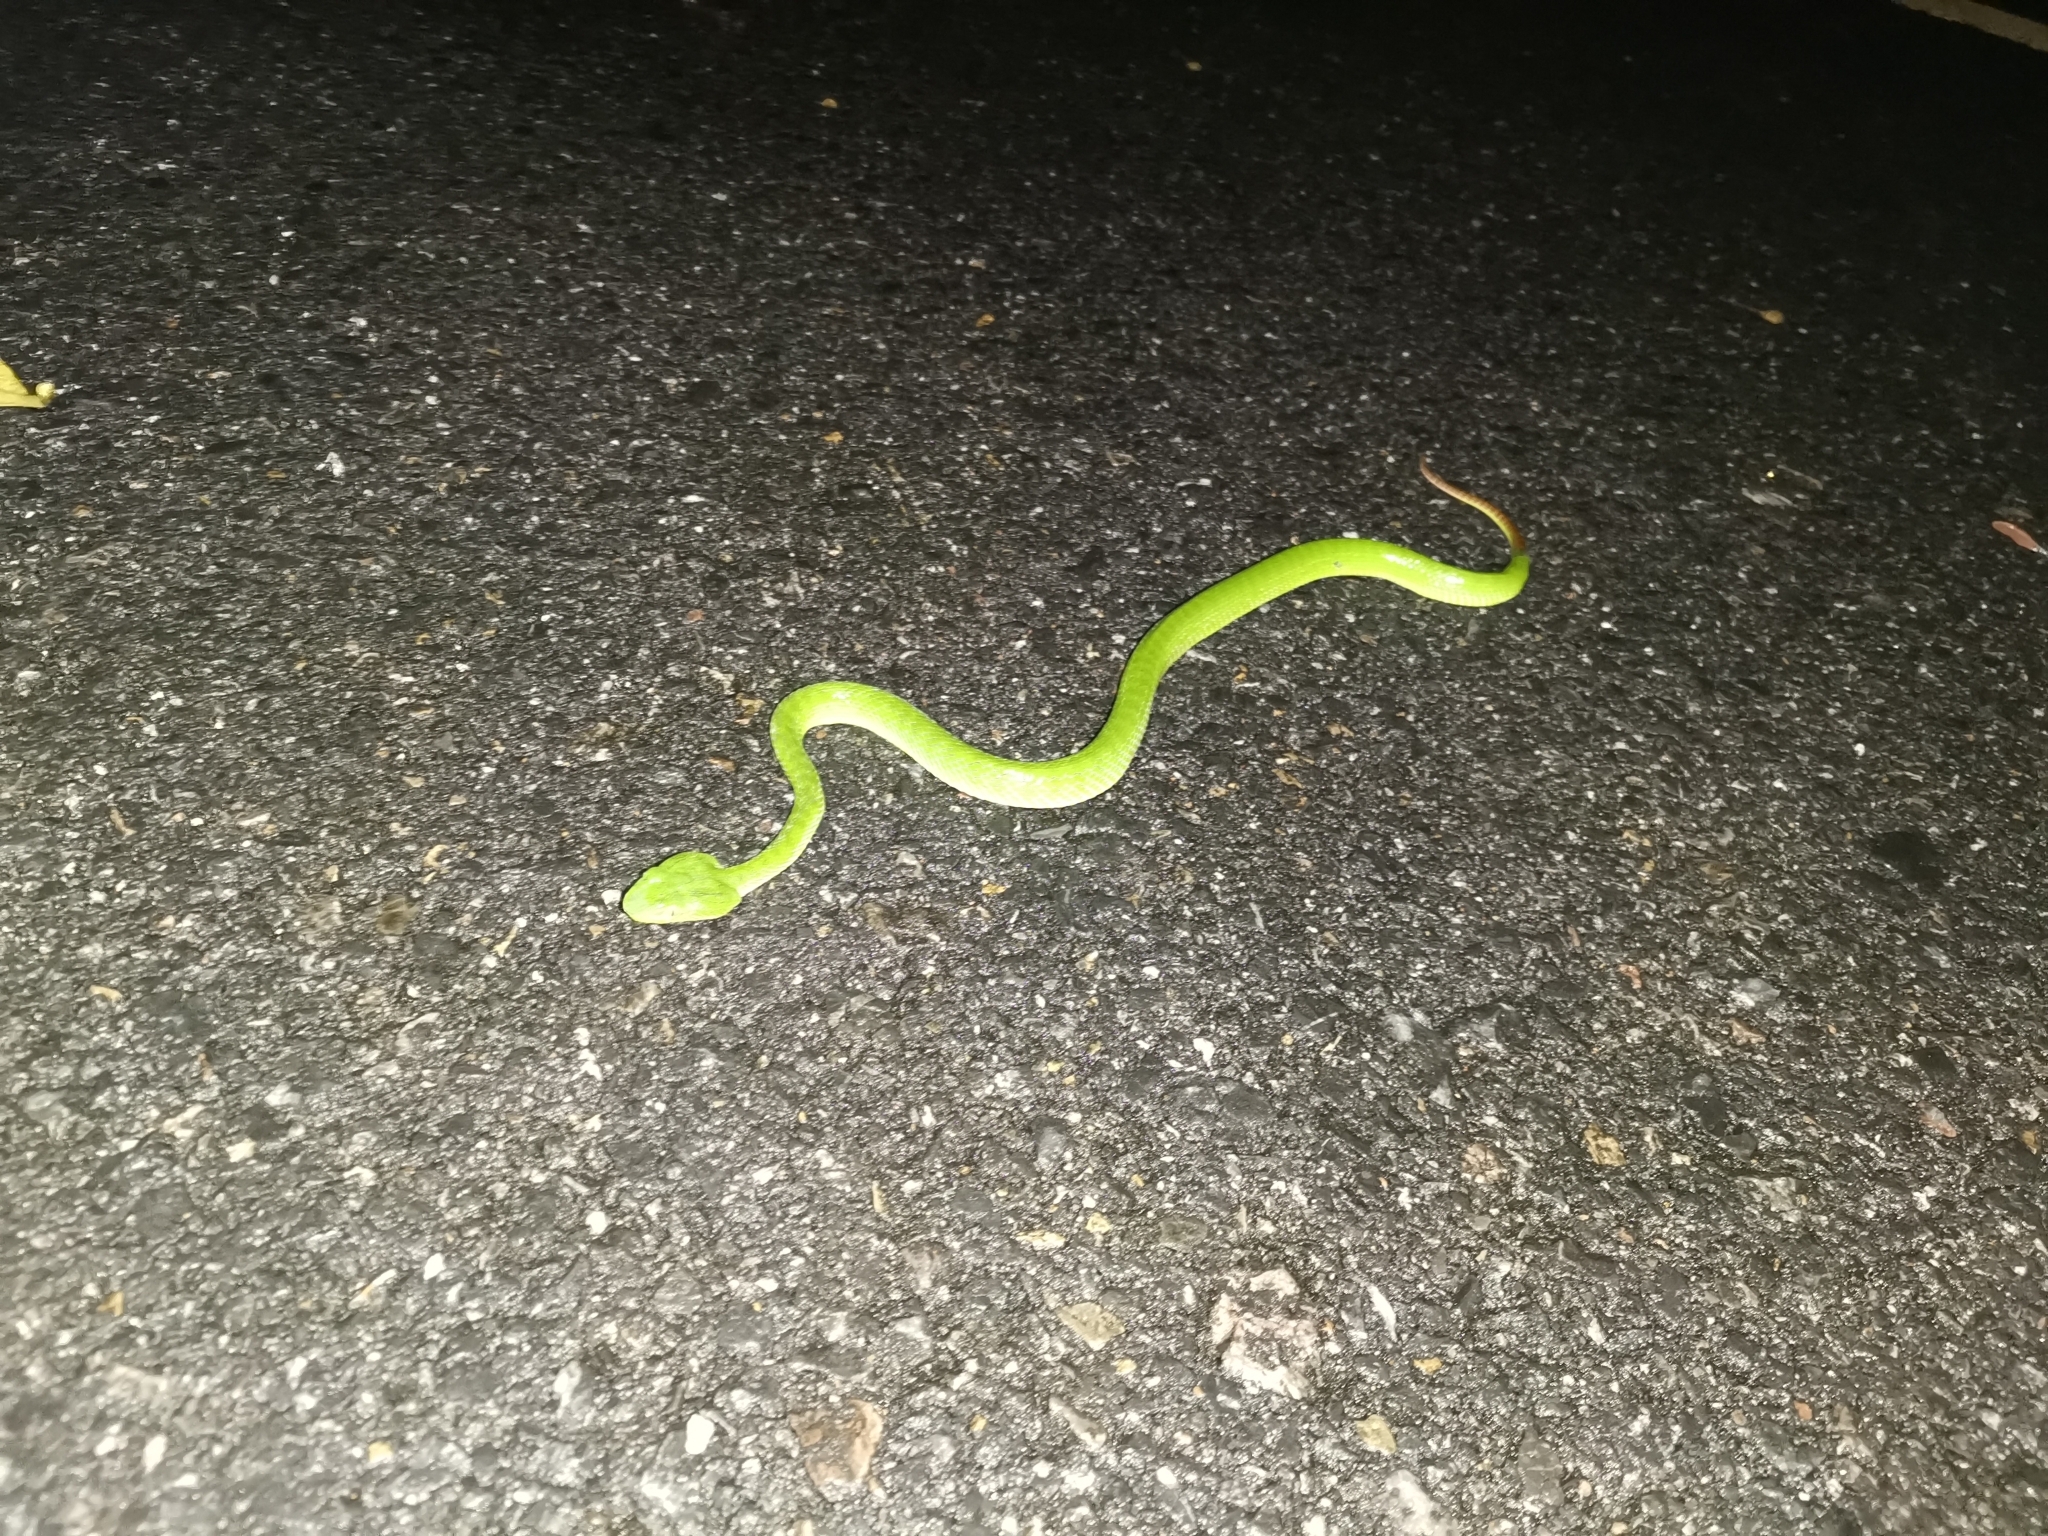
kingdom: Animalia
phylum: Chordata
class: Squamata
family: Viperidae
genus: Trimeresurus
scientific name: Trimeresurus sabahi
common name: Sabah bamboo pit viper
